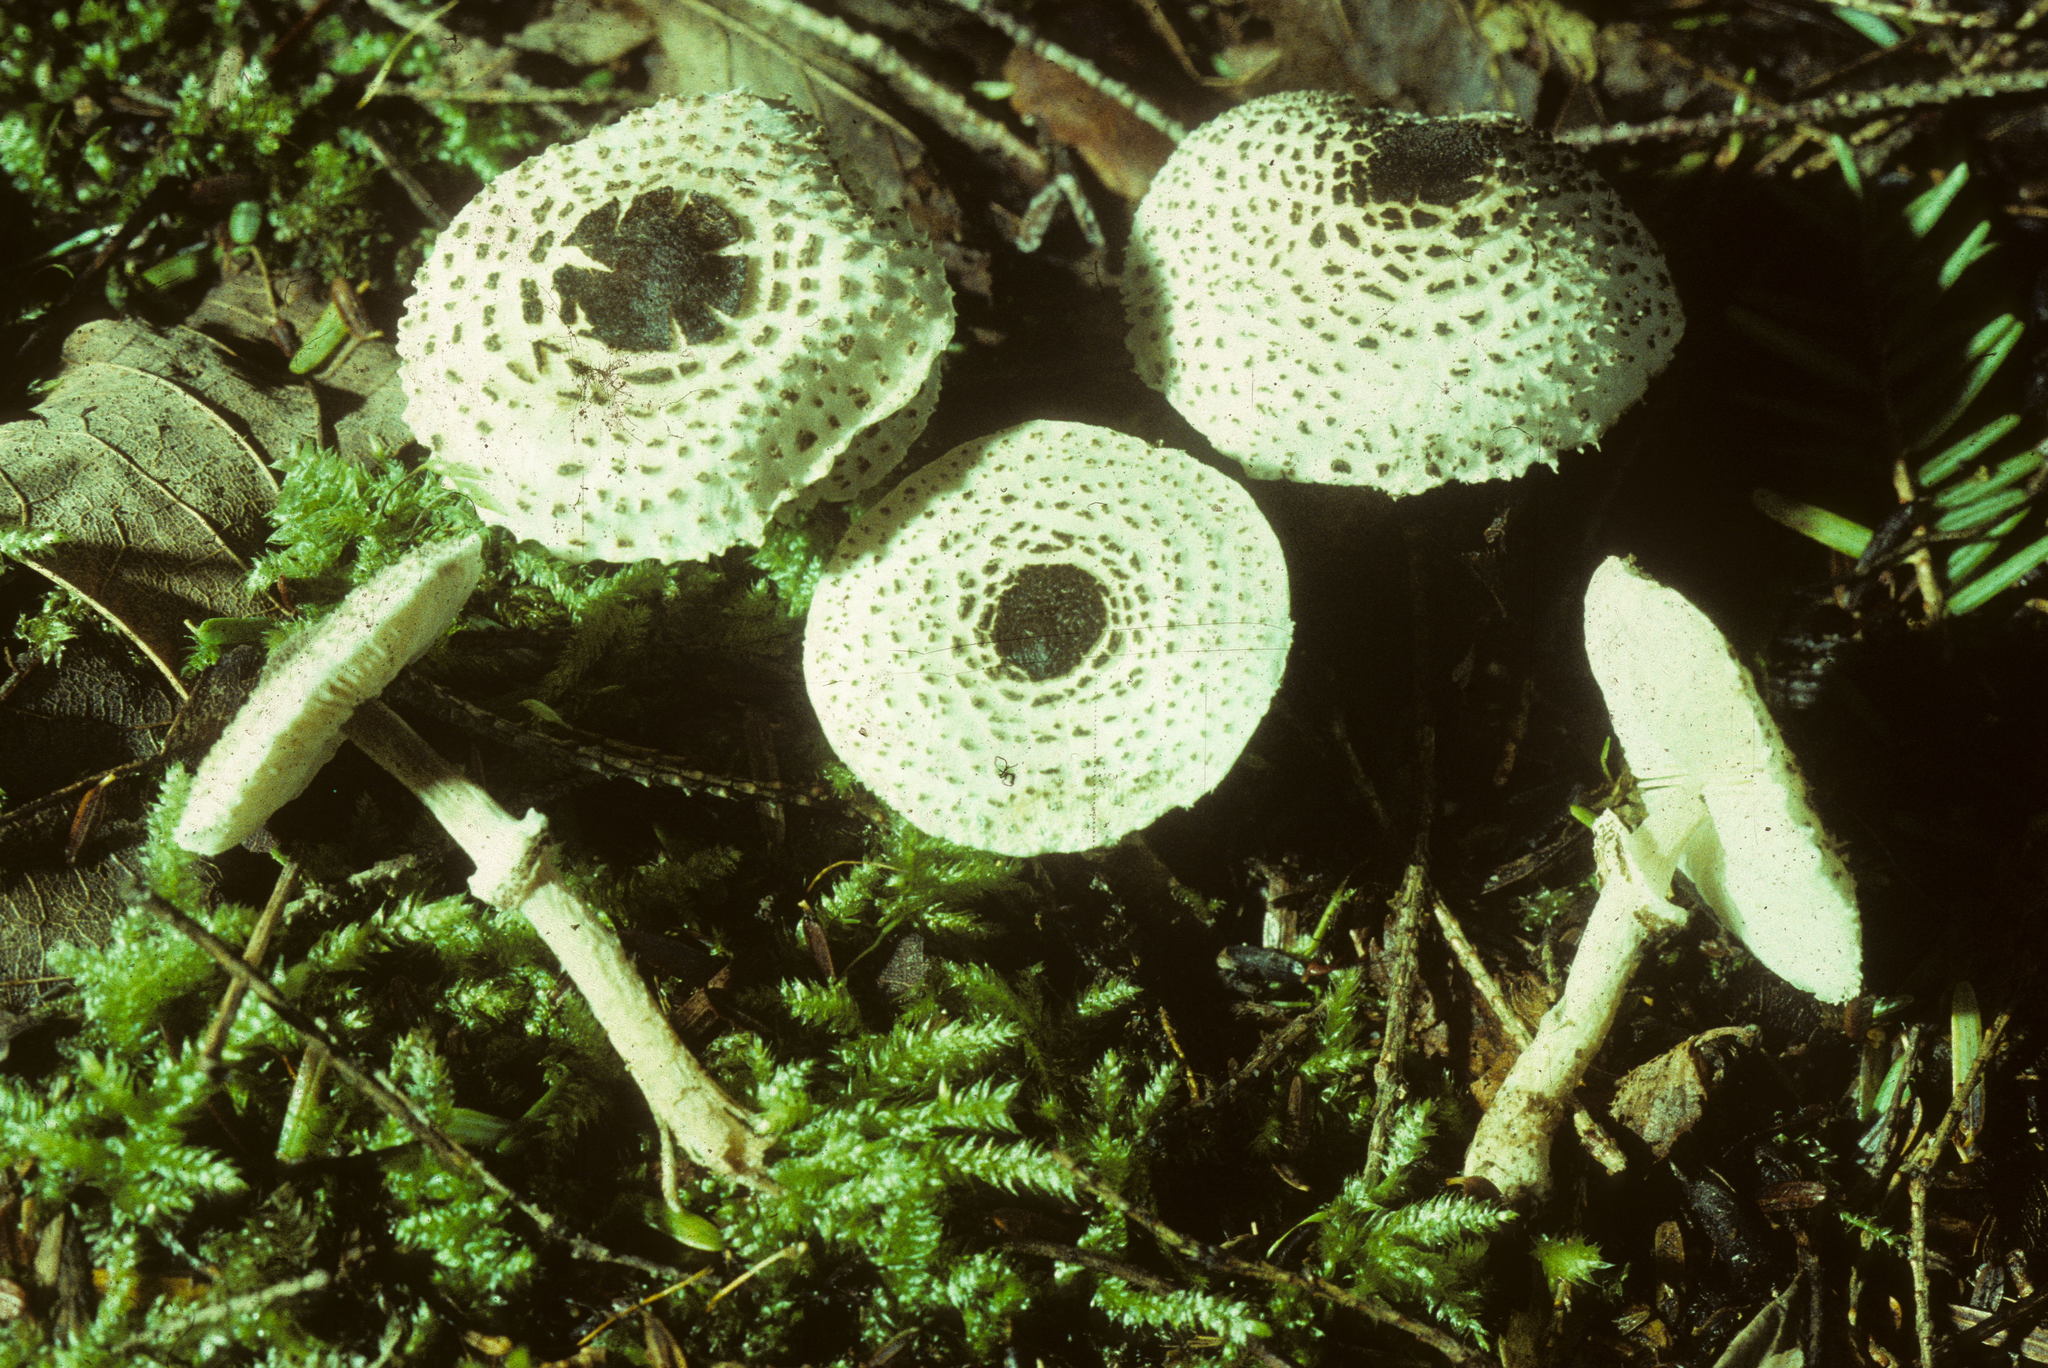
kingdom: Fungi
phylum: Basidiomycota
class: Agaricomycetes
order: Agaricales
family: Agaricaceae
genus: Lepiota
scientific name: Lepiota felina
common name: Cat dapperling
